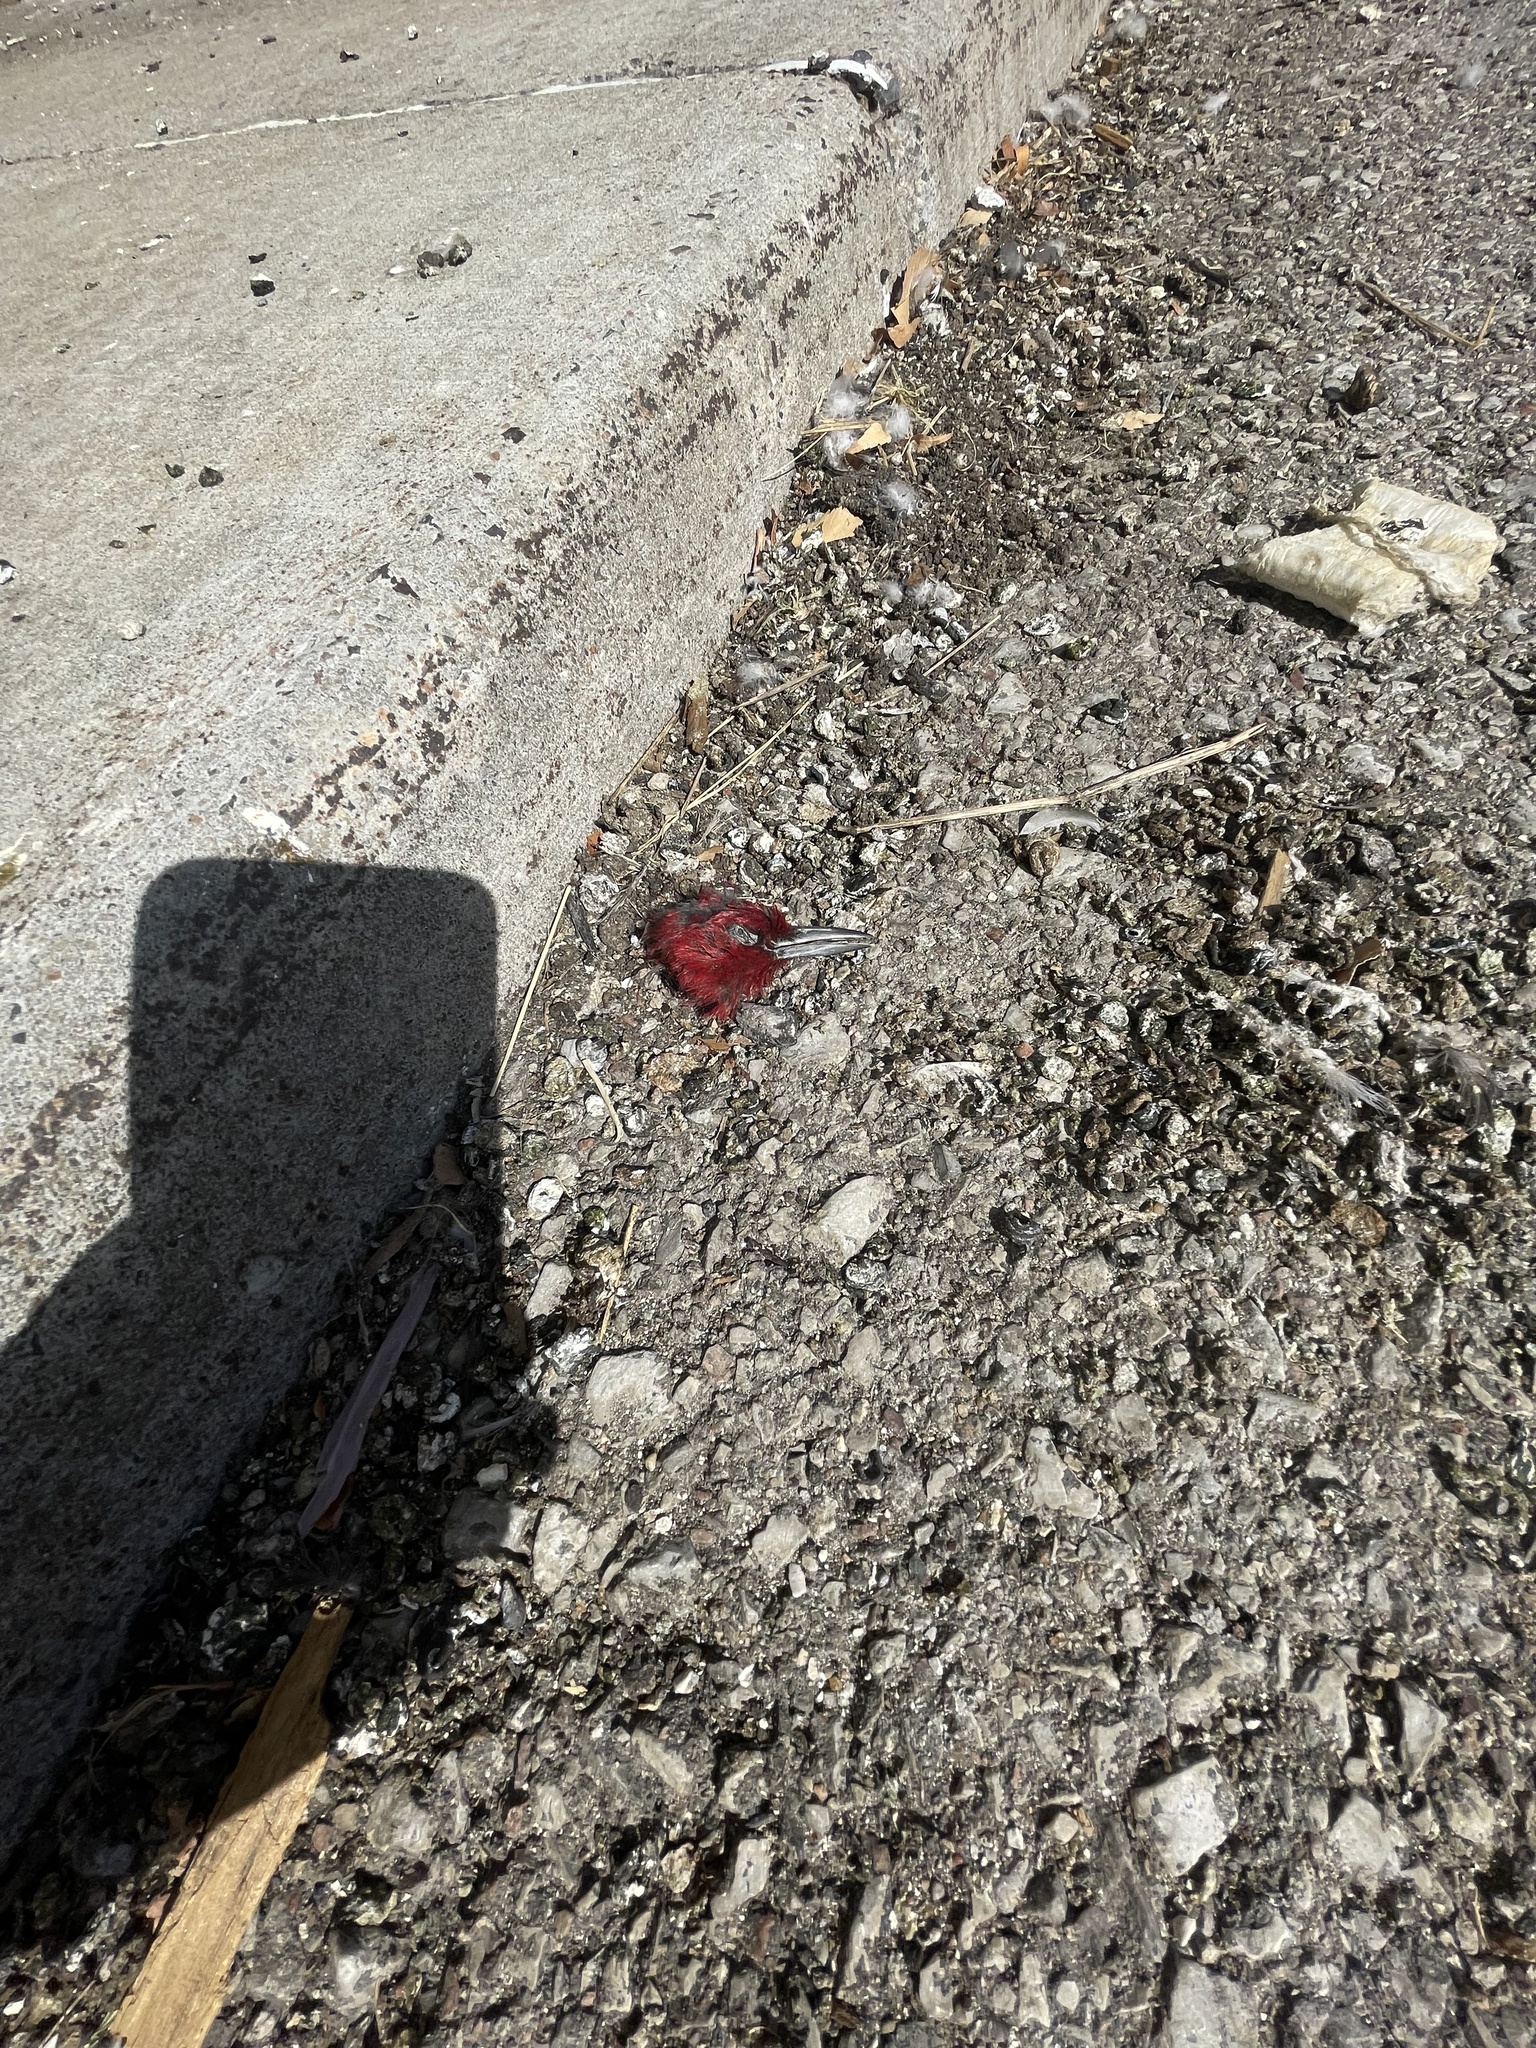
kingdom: Animalia
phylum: Chordata
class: Aves
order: Piciformes
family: Picidae
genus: Melanerpes
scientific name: Melanerpes erythrocephalus
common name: Red-headed woodpecker
